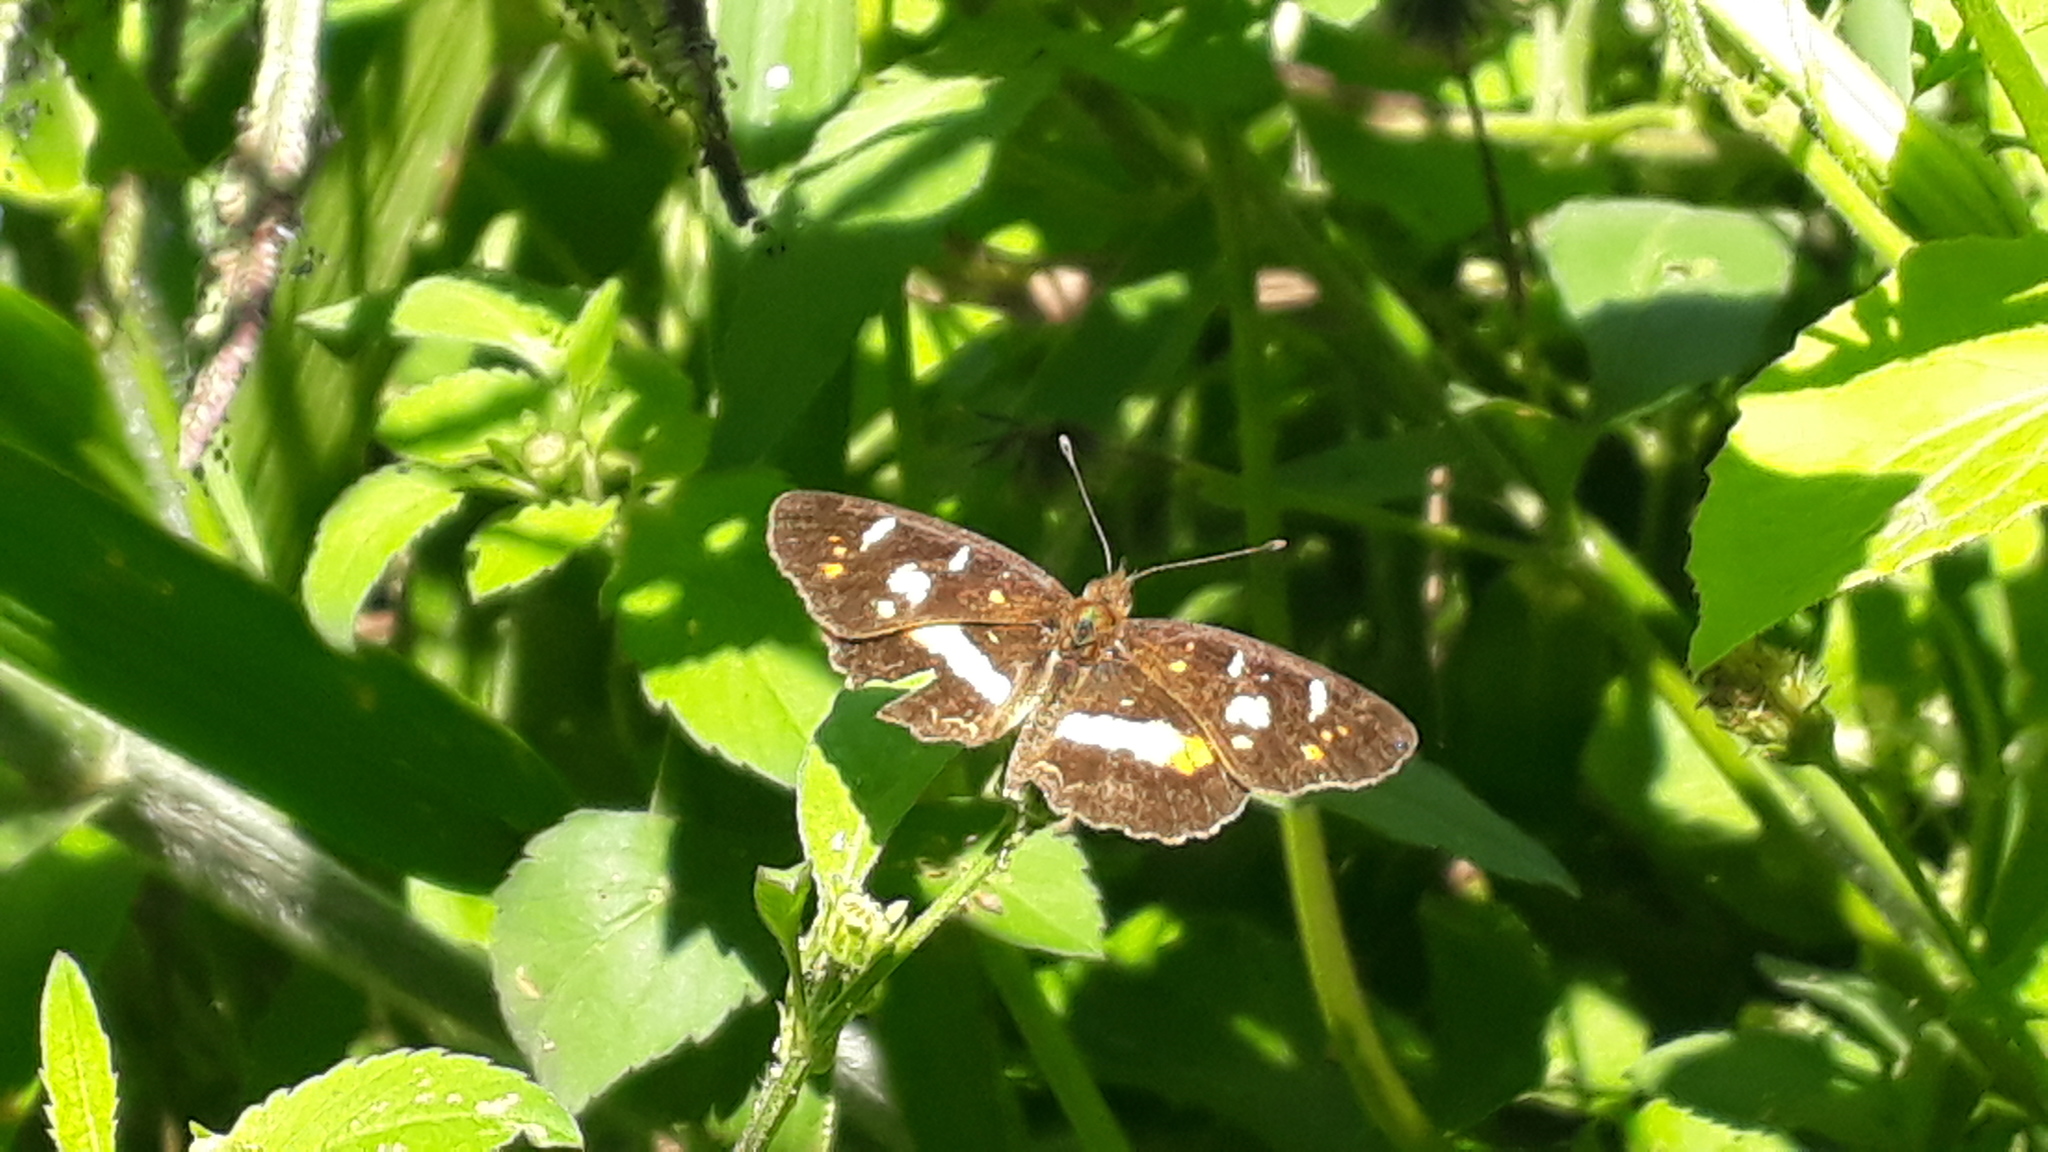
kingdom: Animalia
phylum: Arthropoda
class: Insecta
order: Lepidoptera
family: Nymphalidae
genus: Ortilia
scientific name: Ortilia orthia
